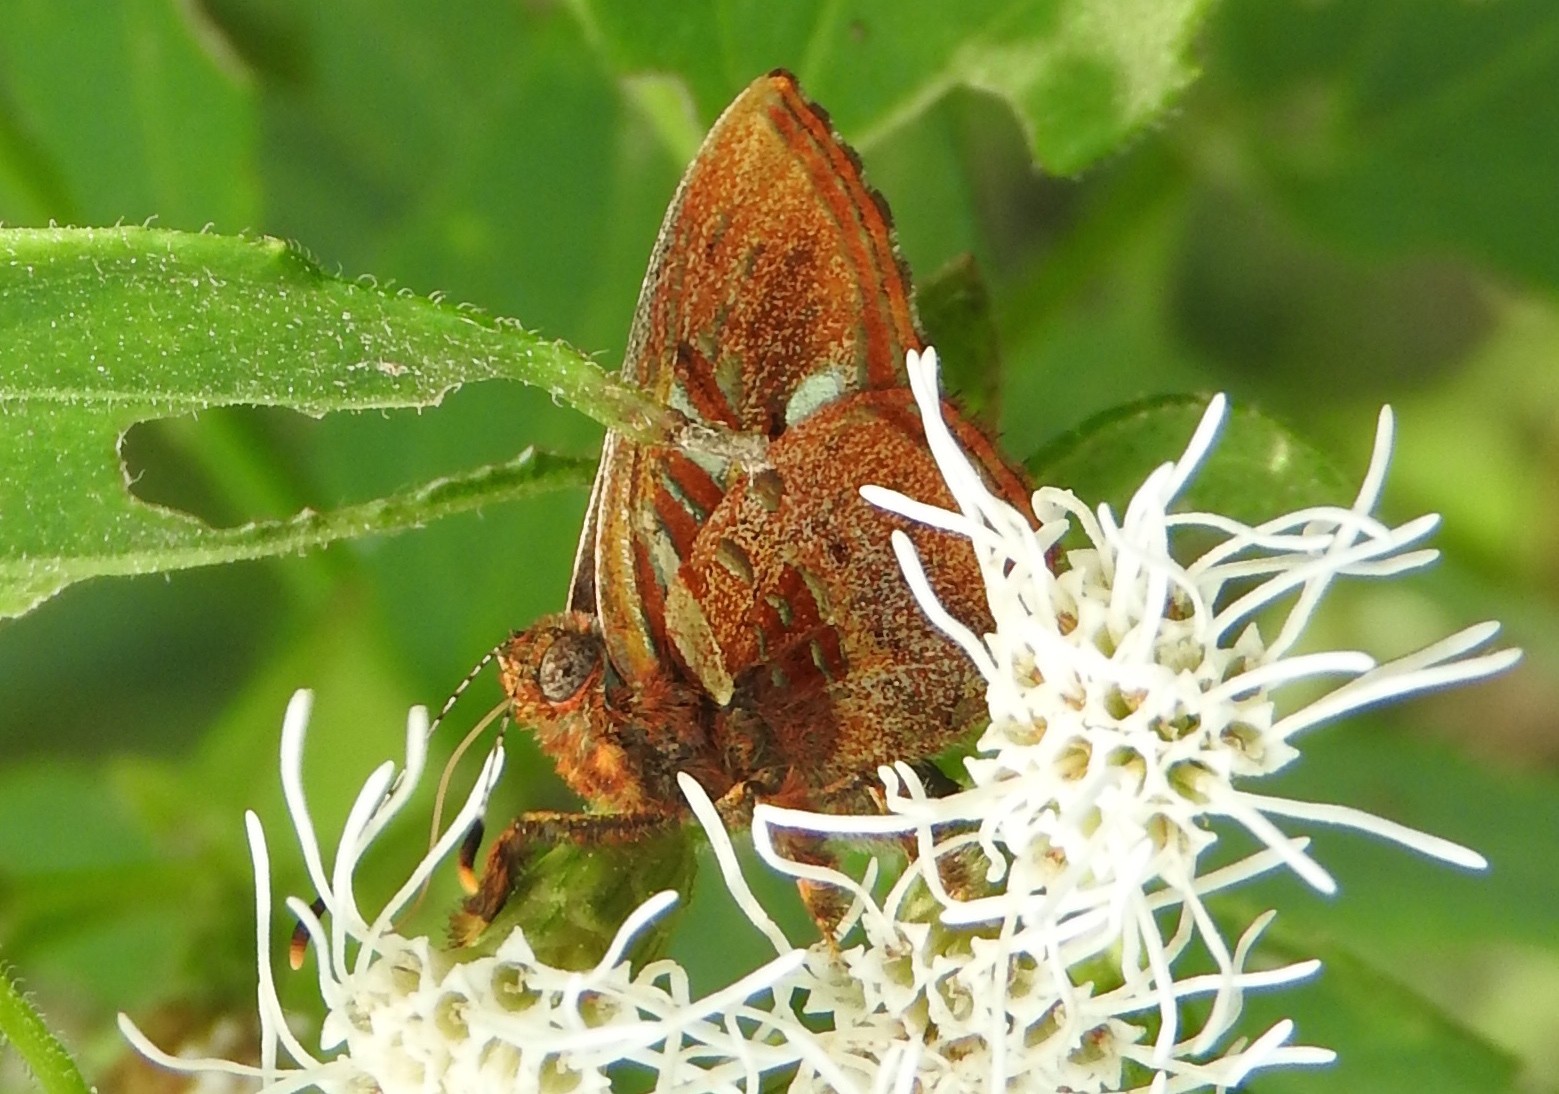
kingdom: Animalia
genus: Anteros
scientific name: Anteros carausius
